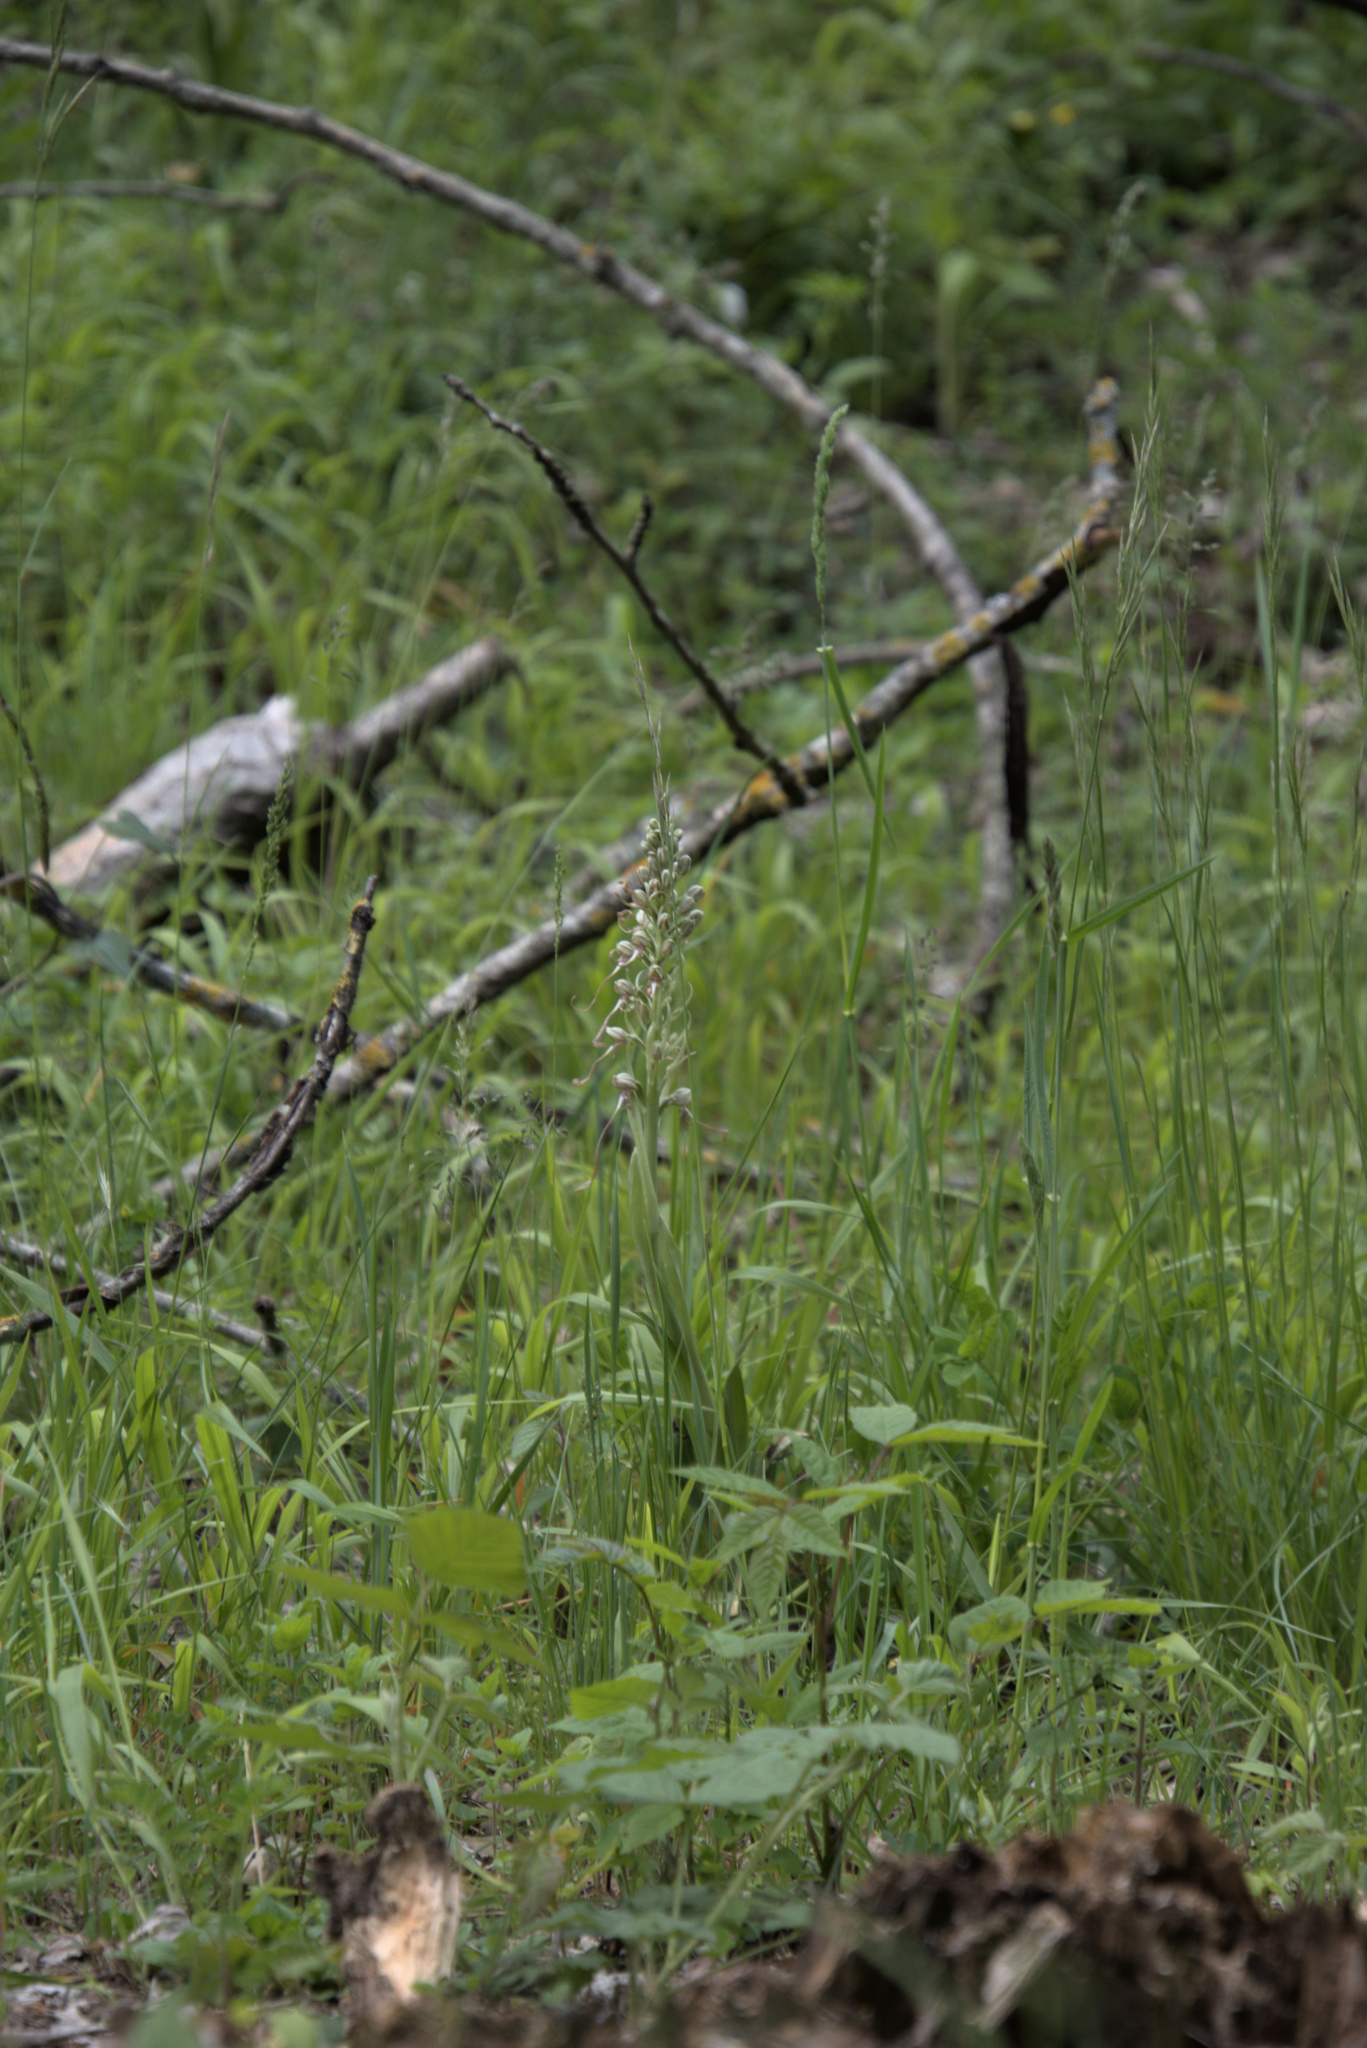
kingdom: Plantae
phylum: Tracheophyta
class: Liliopsida
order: Asparagales
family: Orchidaceae
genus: Himantoglossum
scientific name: Himantoglossum hircinum
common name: Lizard orchid
